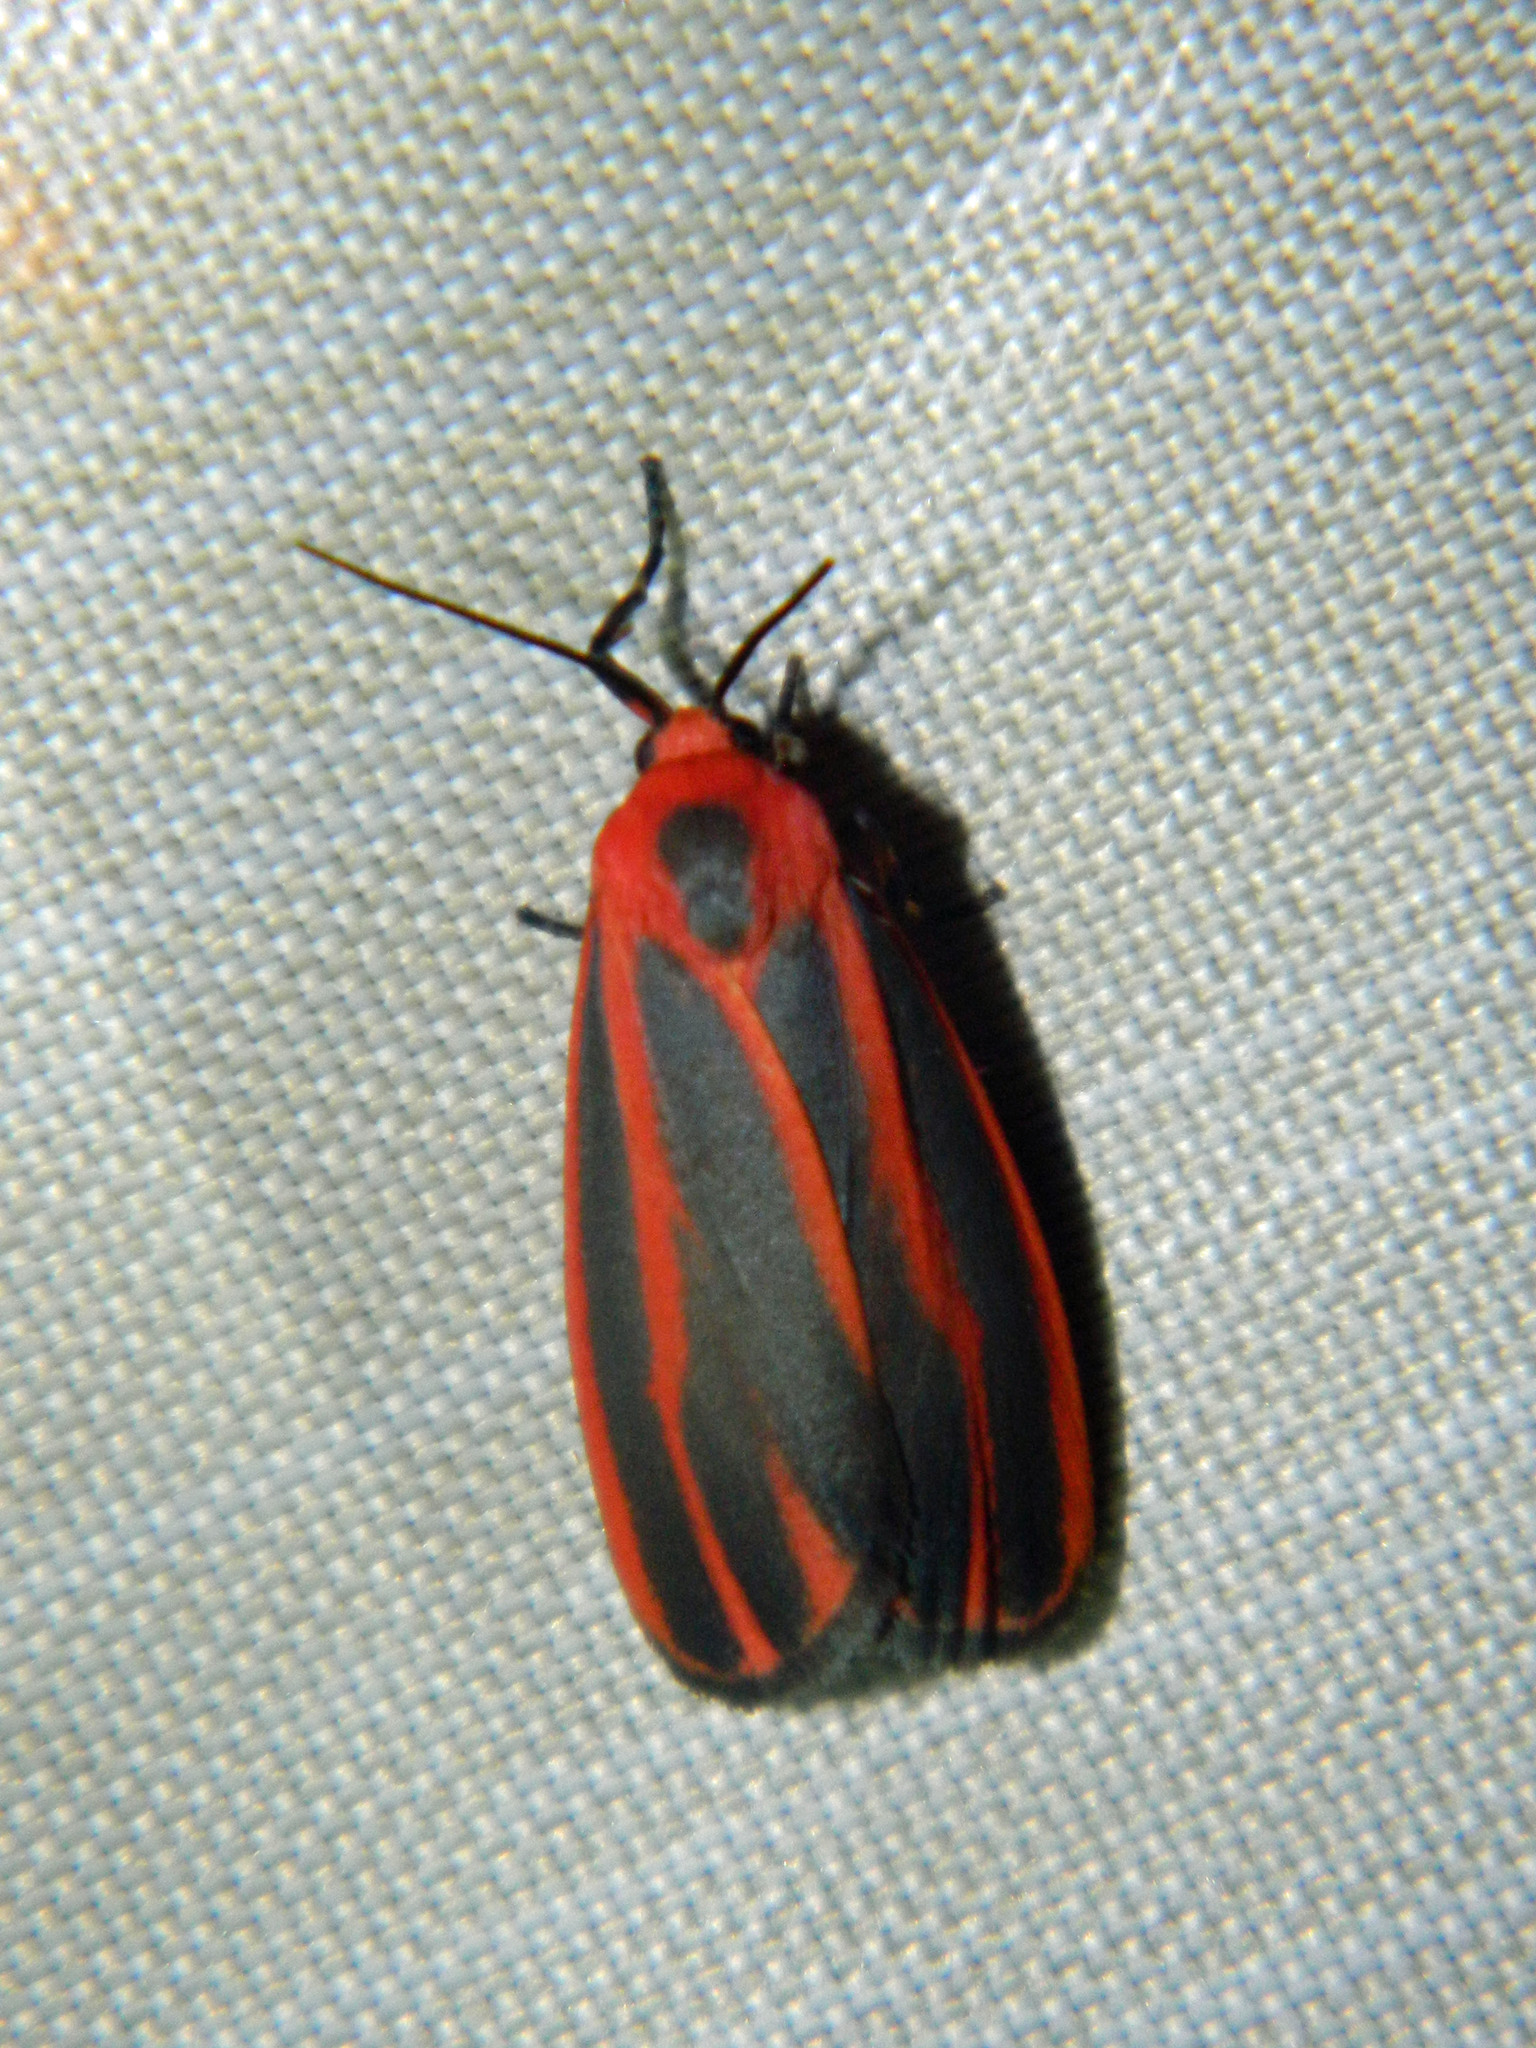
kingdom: Animalia
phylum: Arthropoda
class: Insecta
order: Lepidoptera
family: Erebidae
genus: Hypoprepia
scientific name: Hypoprepia miniata
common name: Scarlet-winged lichen moth
